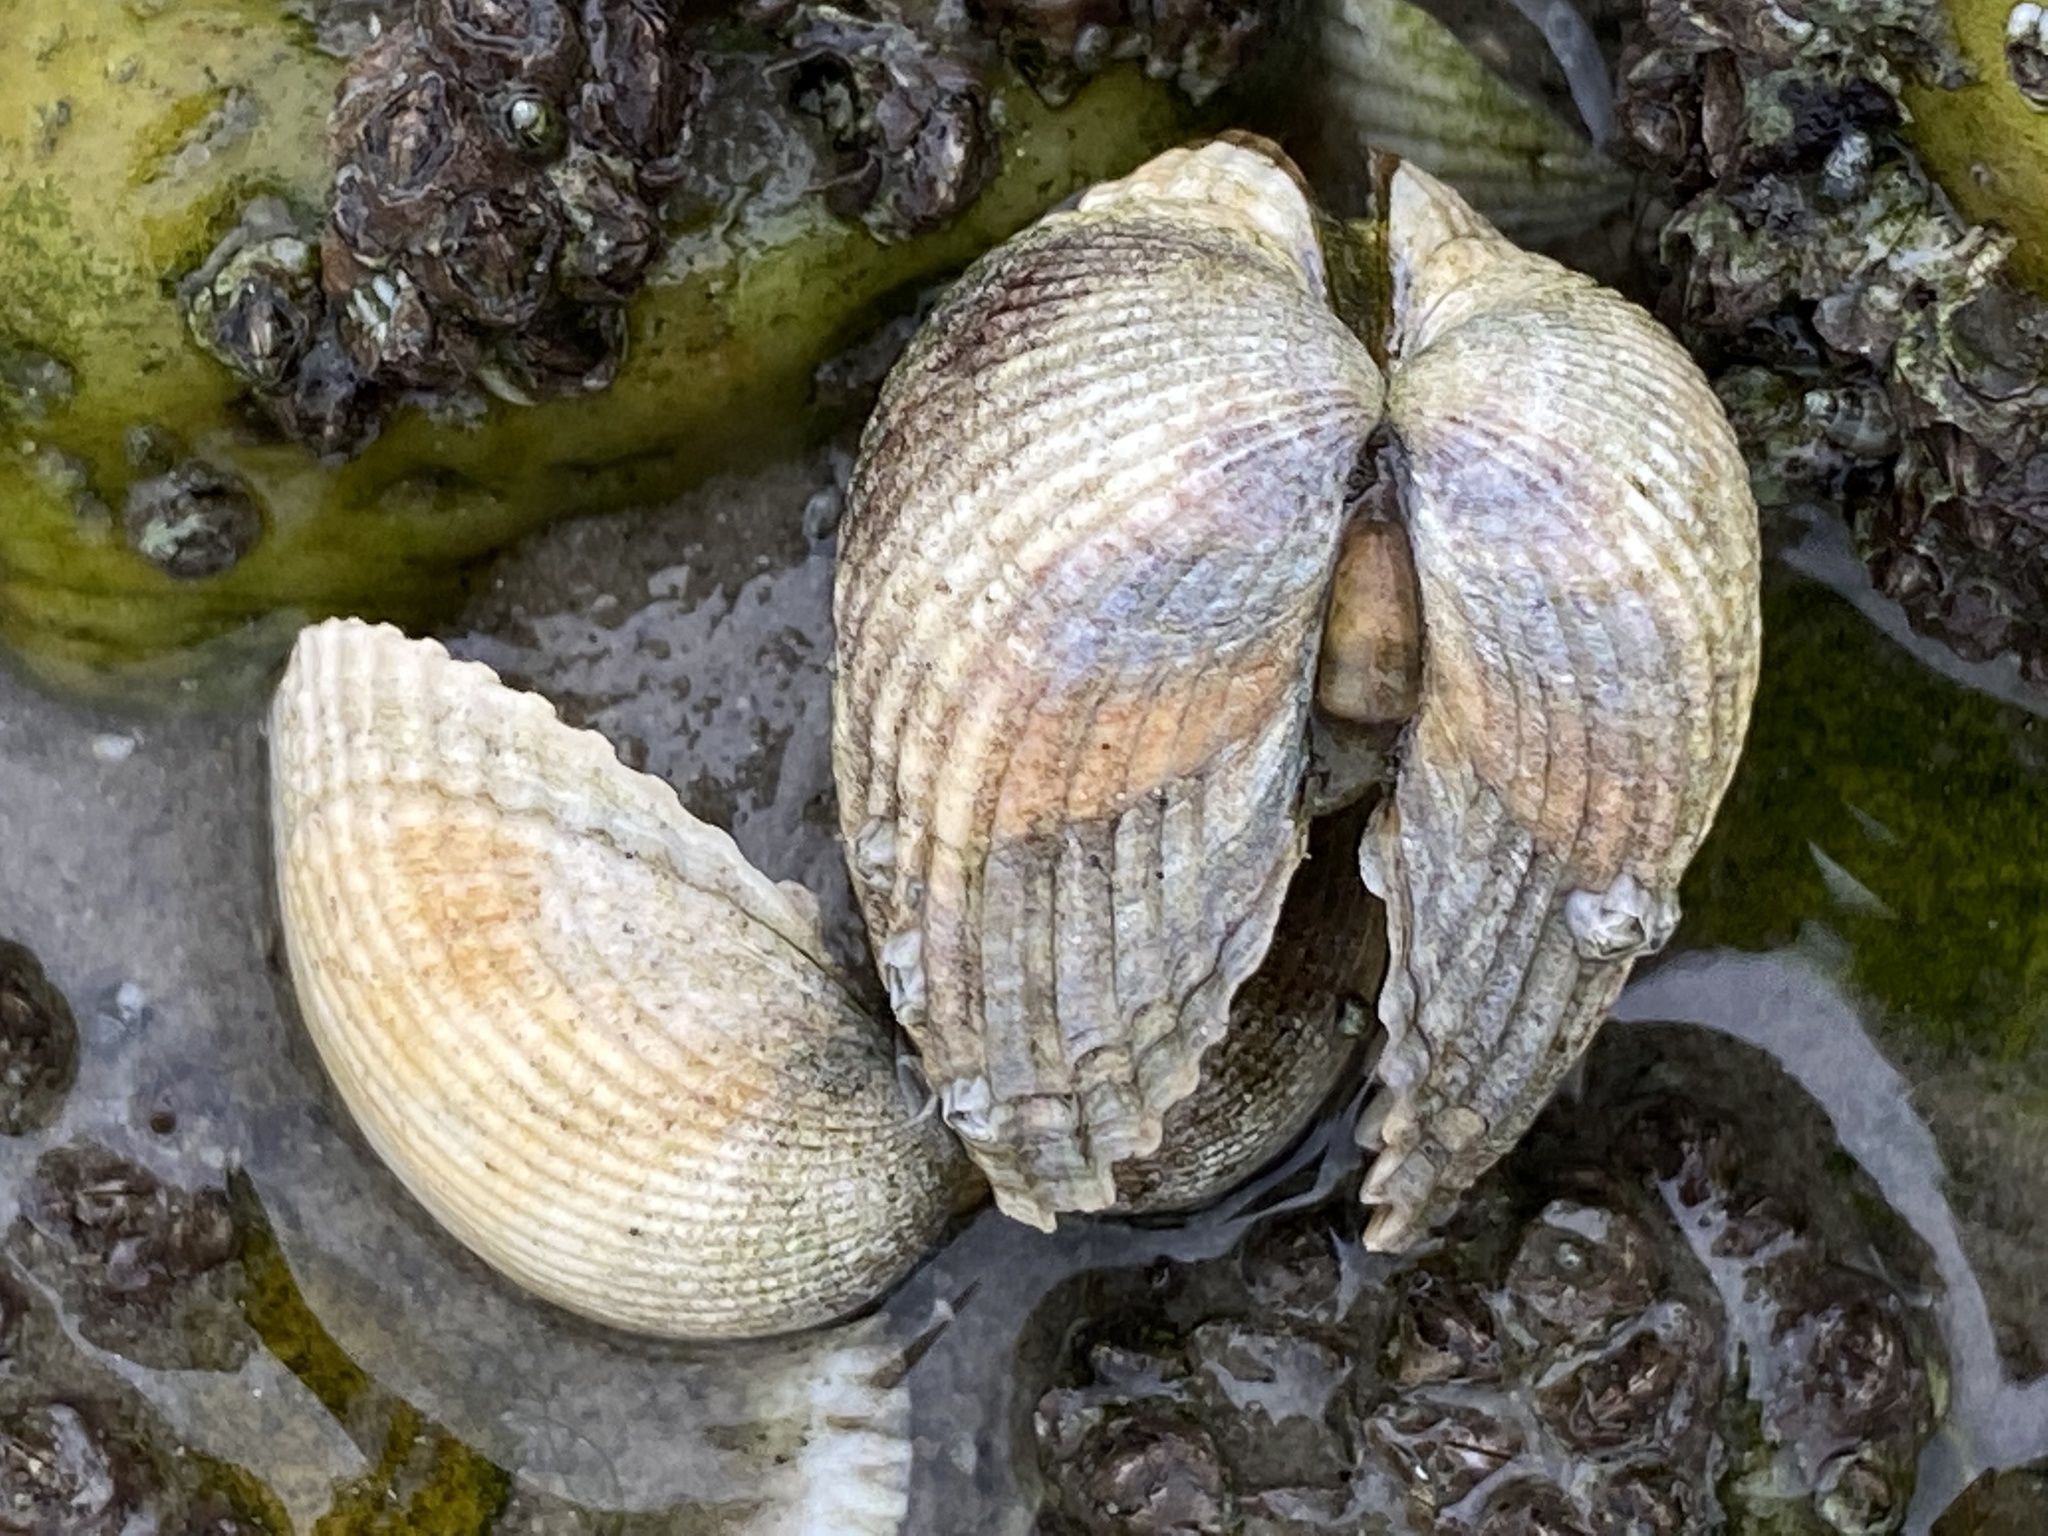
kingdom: Animalia
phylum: Mollusca
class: Bivalvia
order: Cardiida
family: Cardiidae
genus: Cerastoderma
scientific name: Cerastoderma edule
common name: Common cockle
